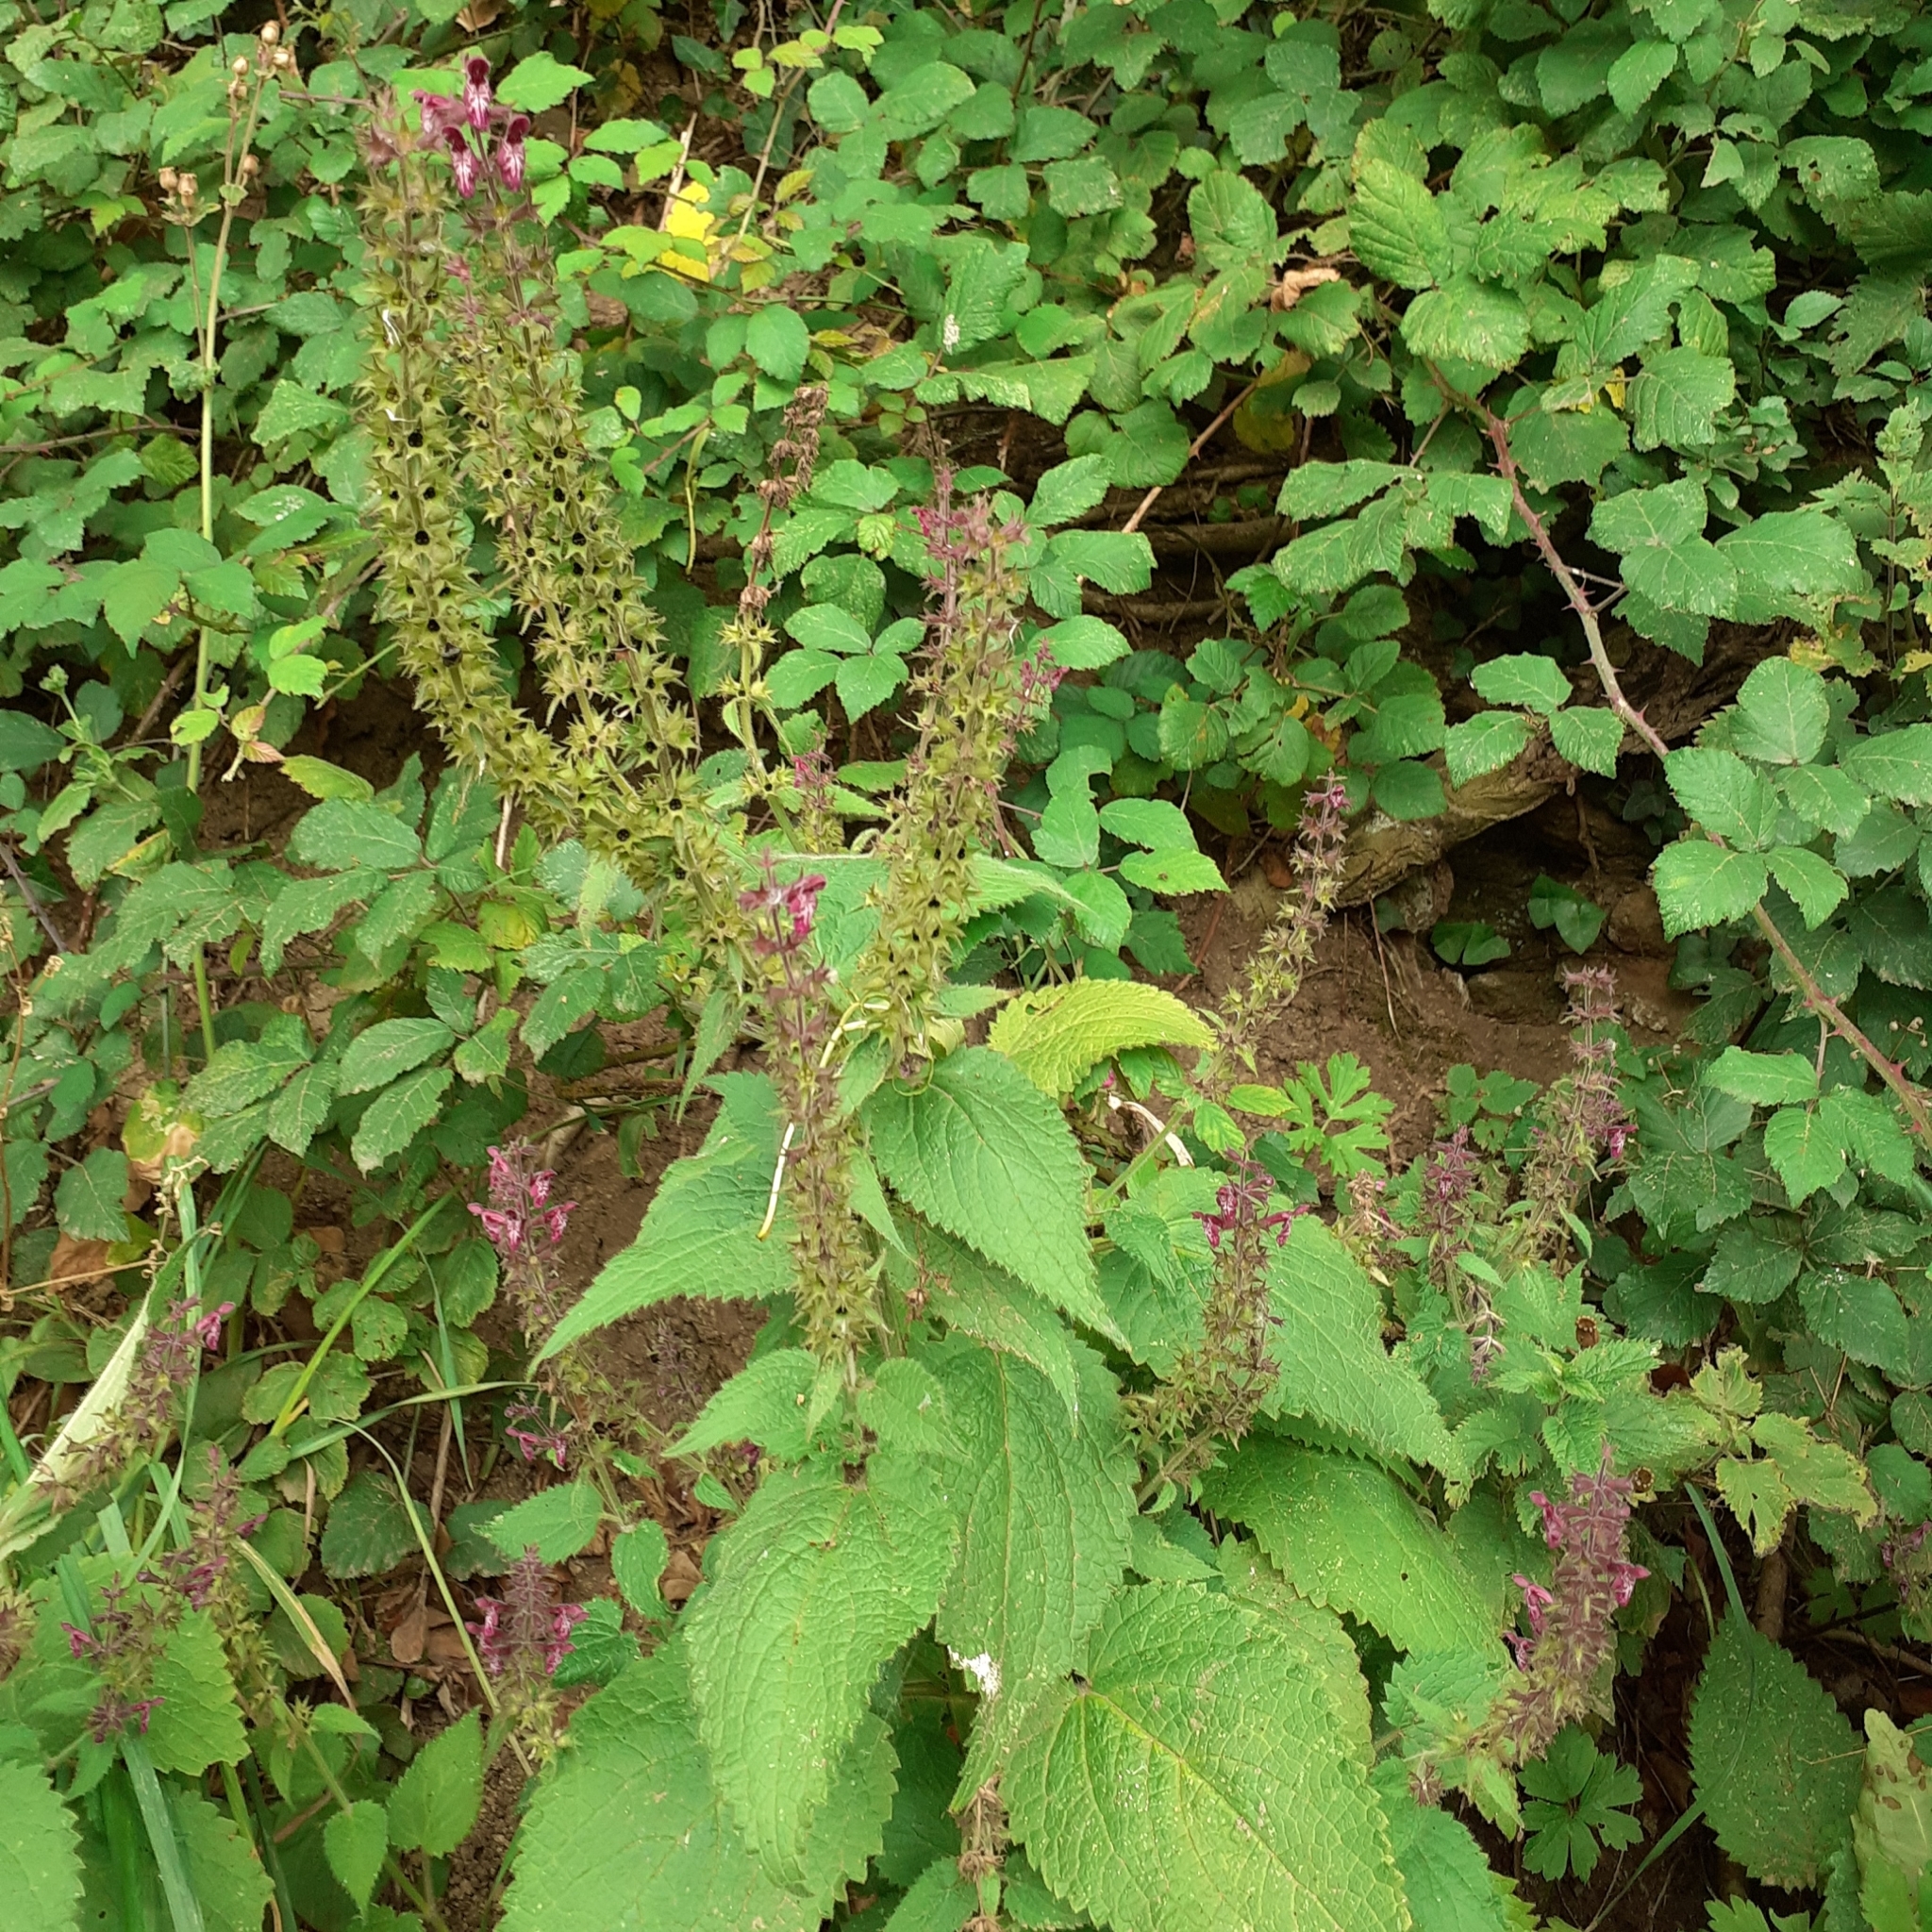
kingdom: Plantae
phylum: Tracheophyta
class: Magnoliopsida
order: Lamiales
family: Lamiaceae
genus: Stachys
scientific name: Stachys sylvatica
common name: Hedge woundwort
